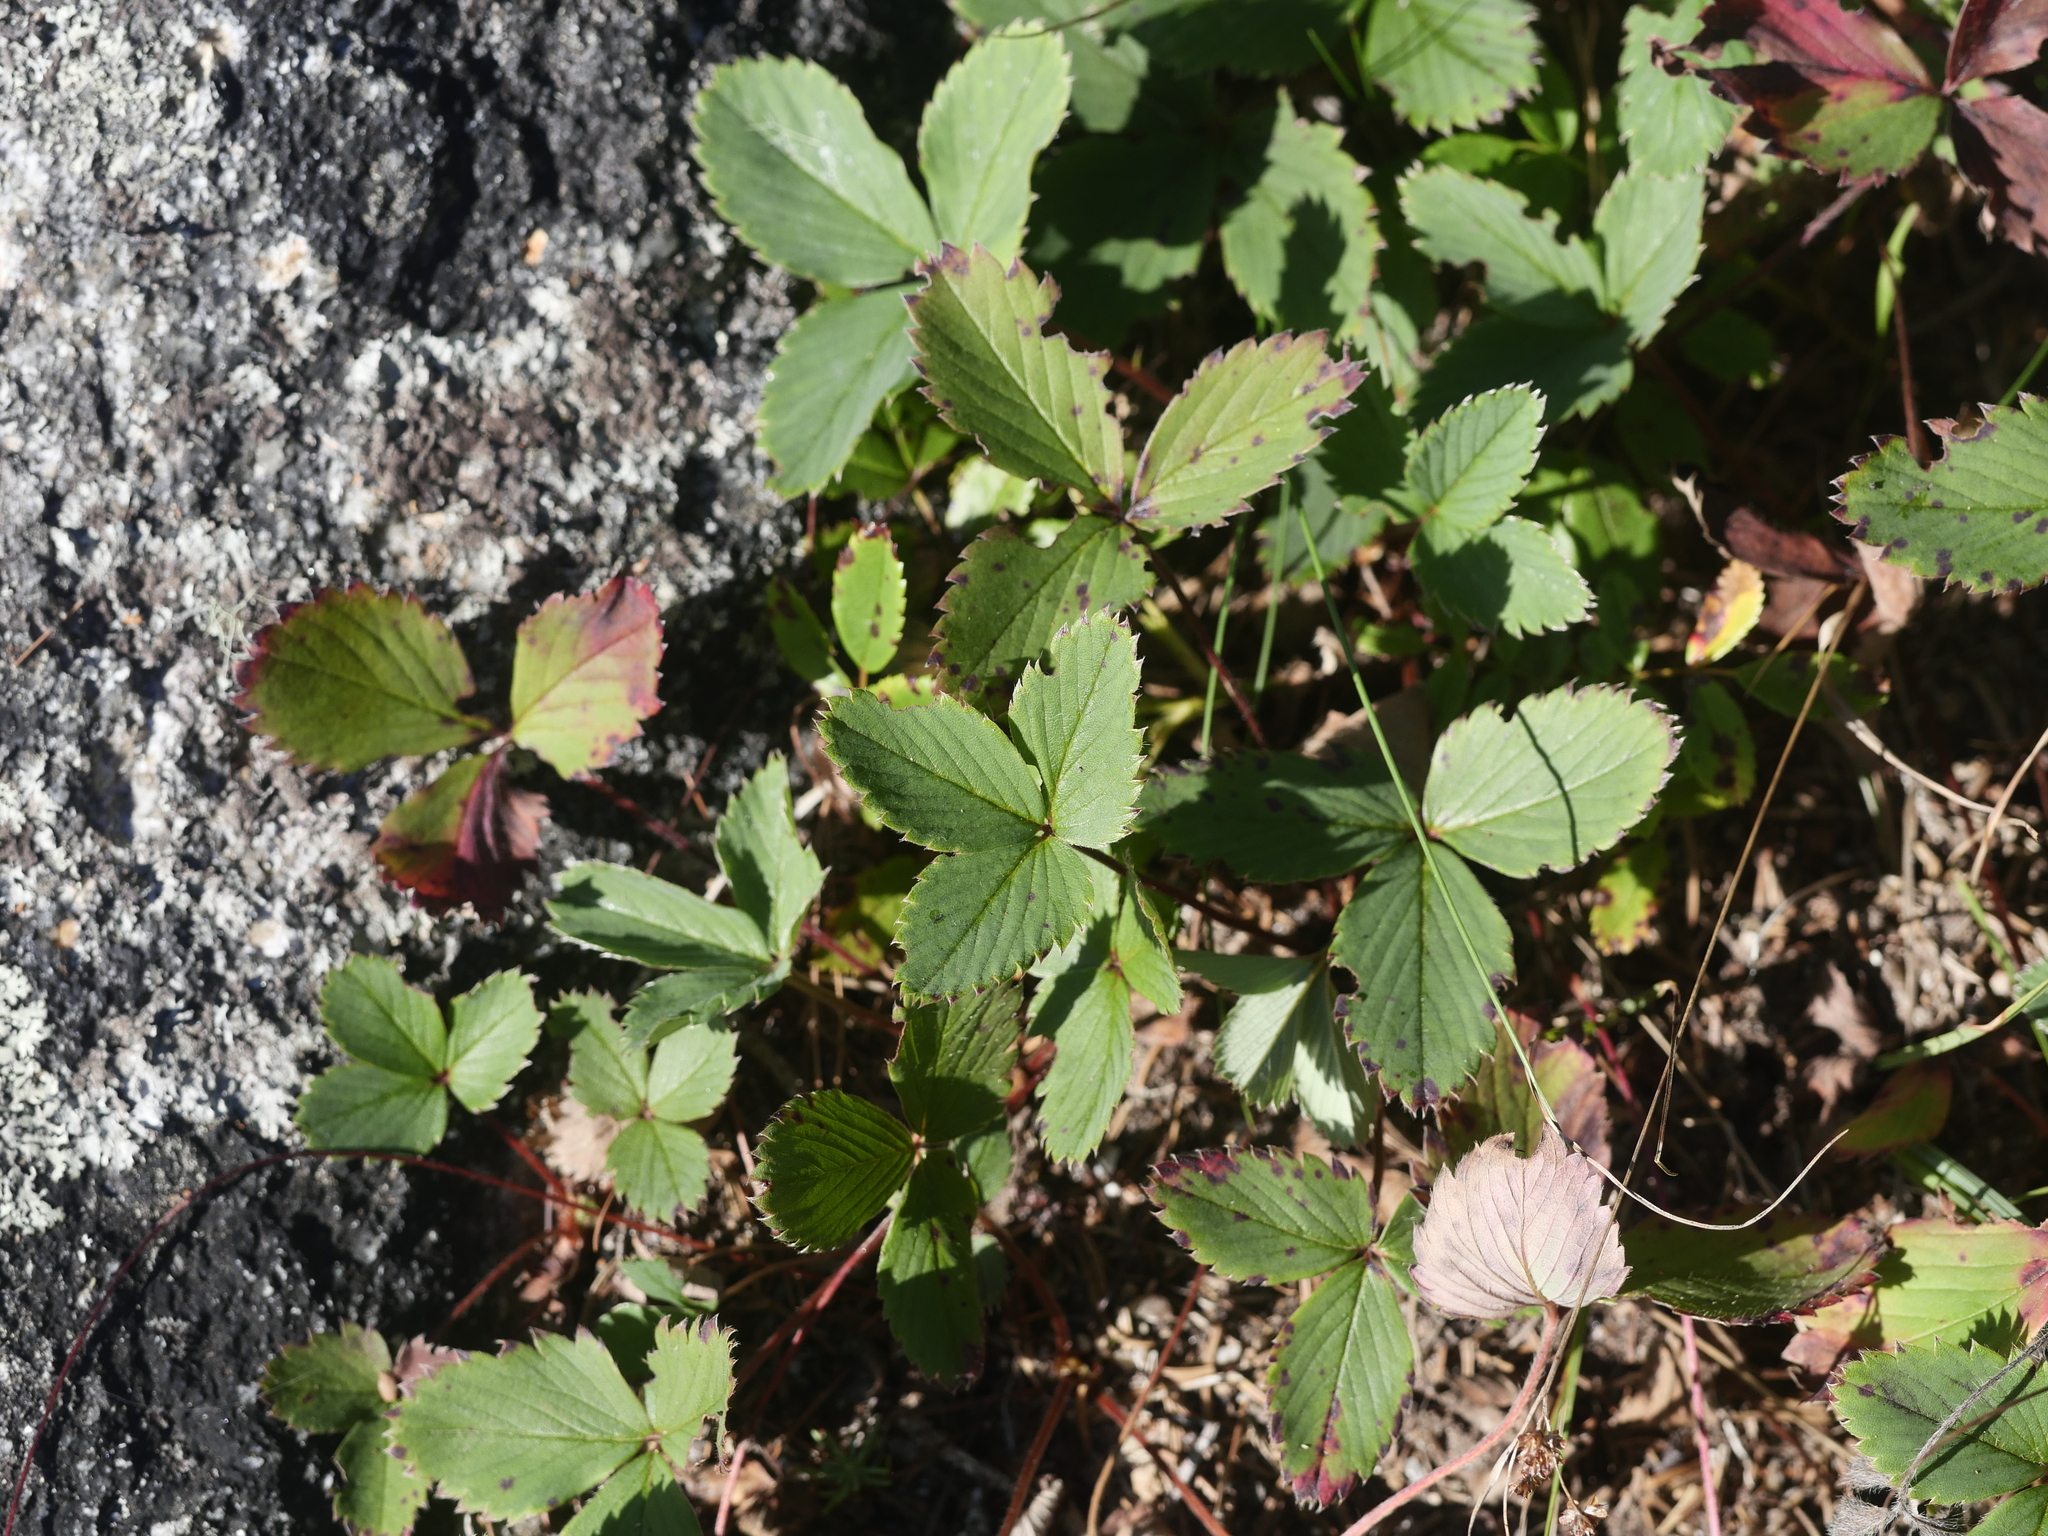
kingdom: Plantae
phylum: Tracheophyta
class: Magnoliopsida
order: Rosales
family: Rosaceae
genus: Fragaria
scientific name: Fragaria virginiana
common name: Thickleaved wild strawberry
